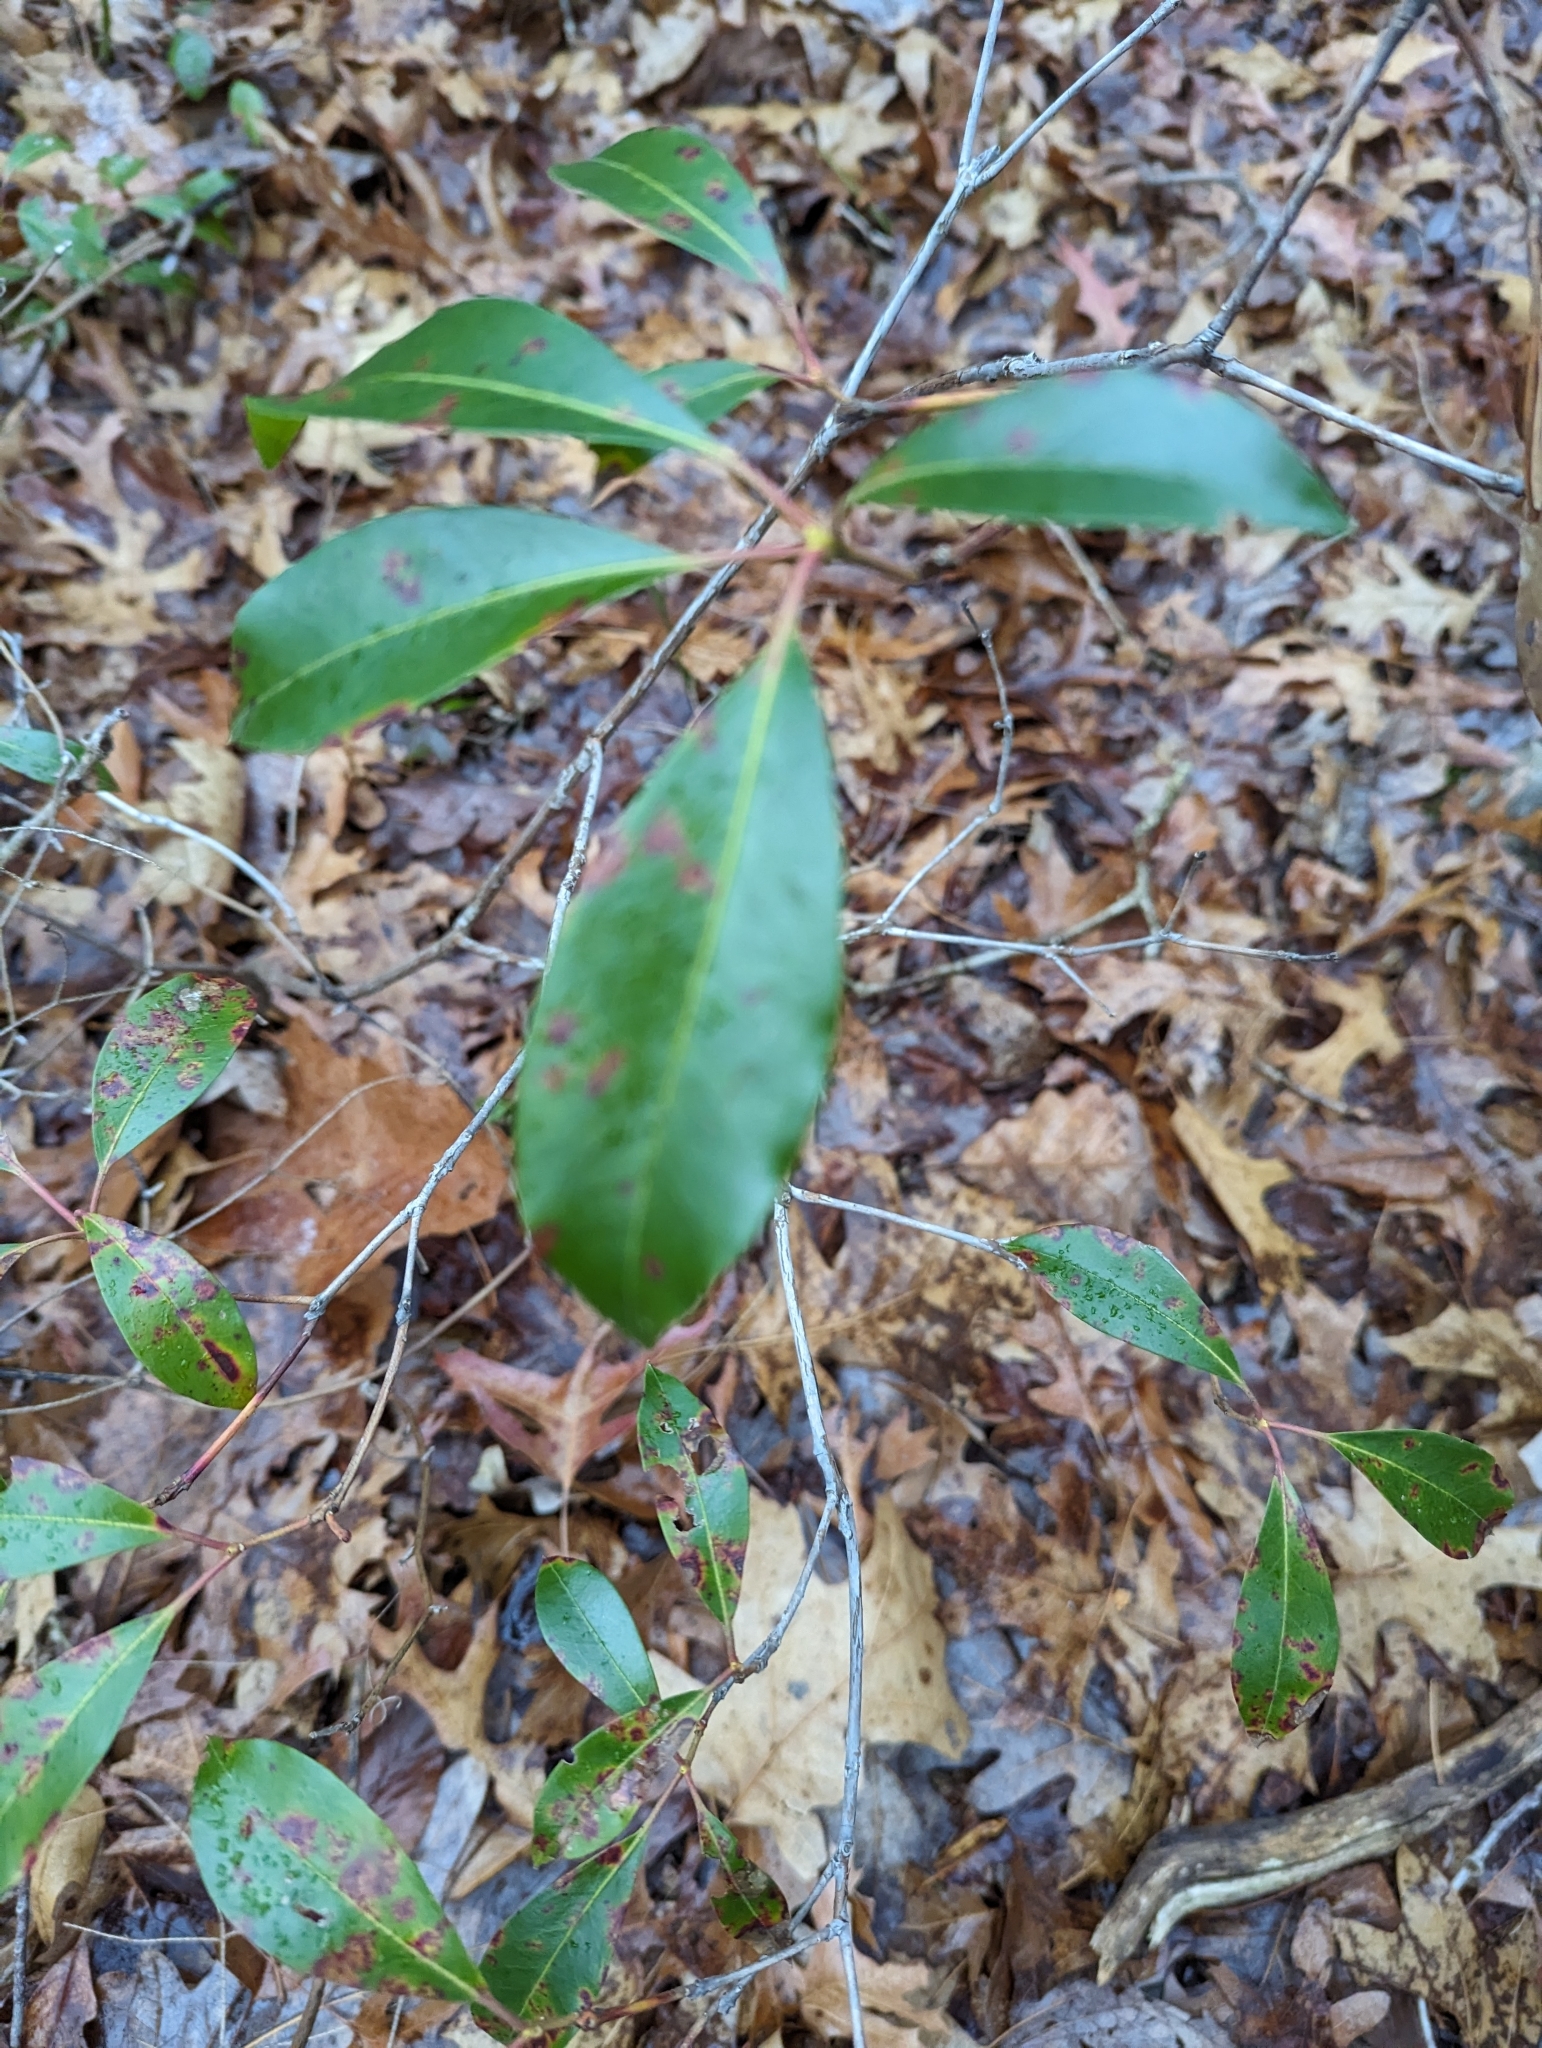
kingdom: Plantae
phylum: Tracheophyta
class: Magnoliopsida
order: Ericales
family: Ericaceae
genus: Kalmia
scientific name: Kalmia latifolia
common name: Mountain-laurel
